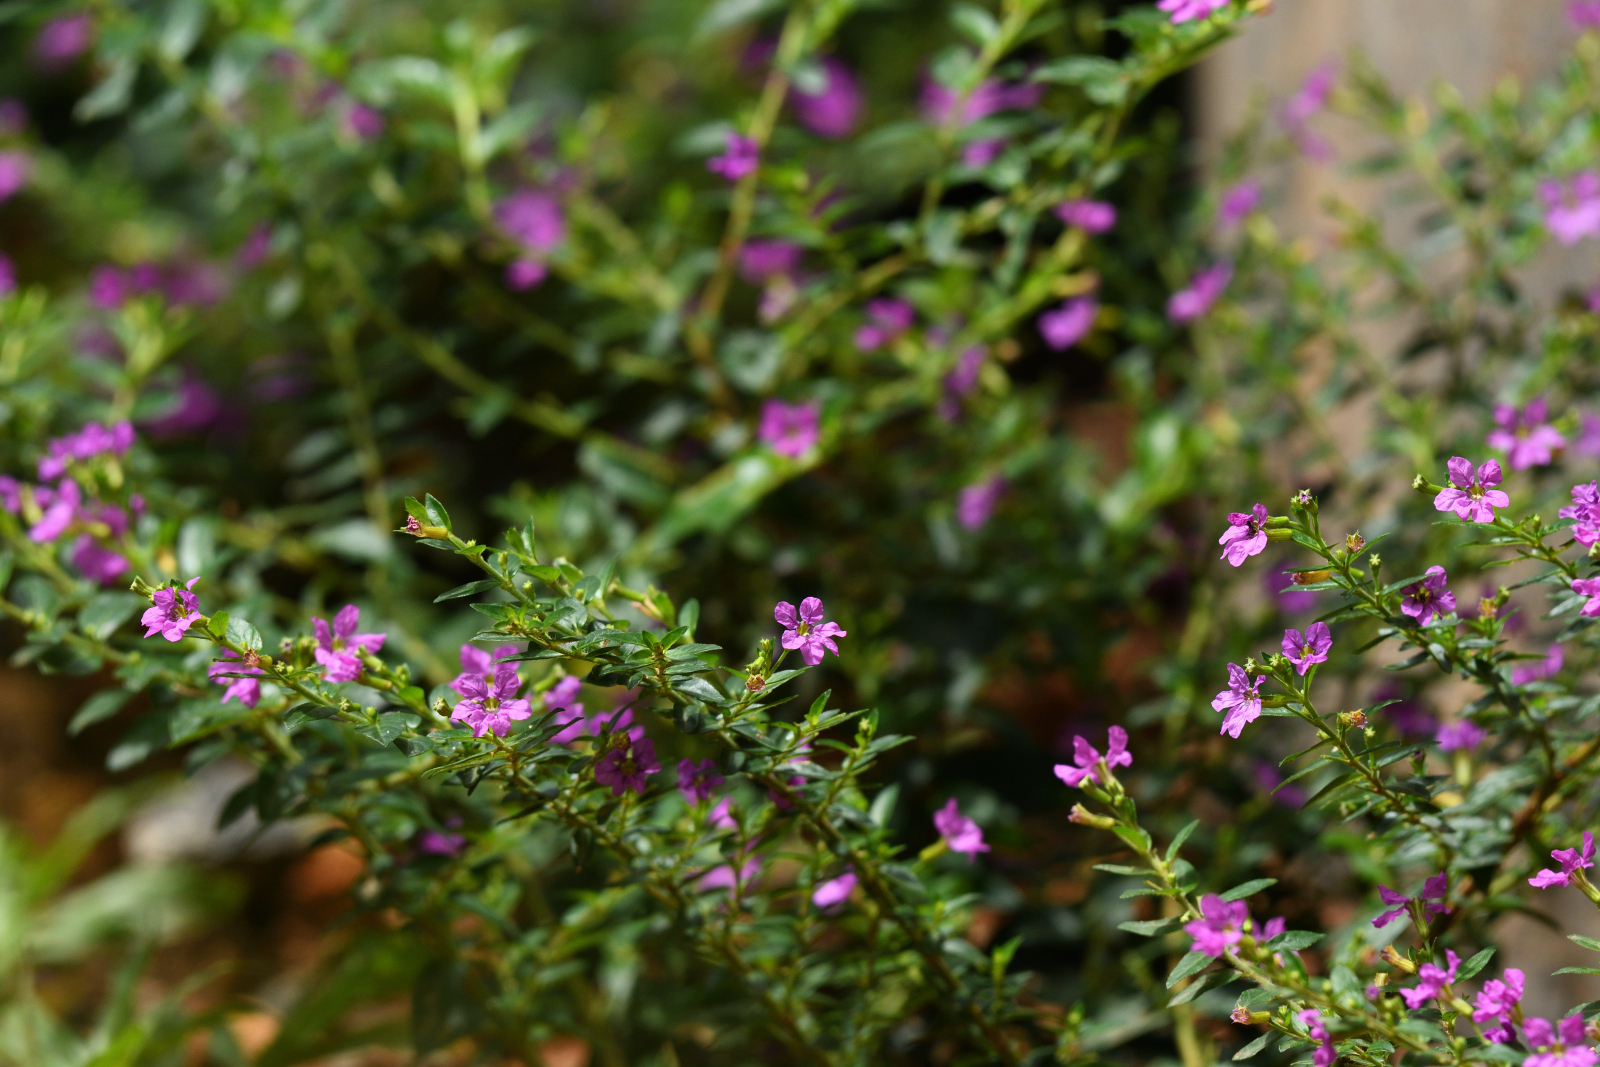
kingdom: Plantae
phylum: Tracheophyta
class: Magnoliopsida
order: Myrtales
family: Lythraceae
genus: Cuphea
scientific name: Cuphea hyssopifolia
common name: False heather
